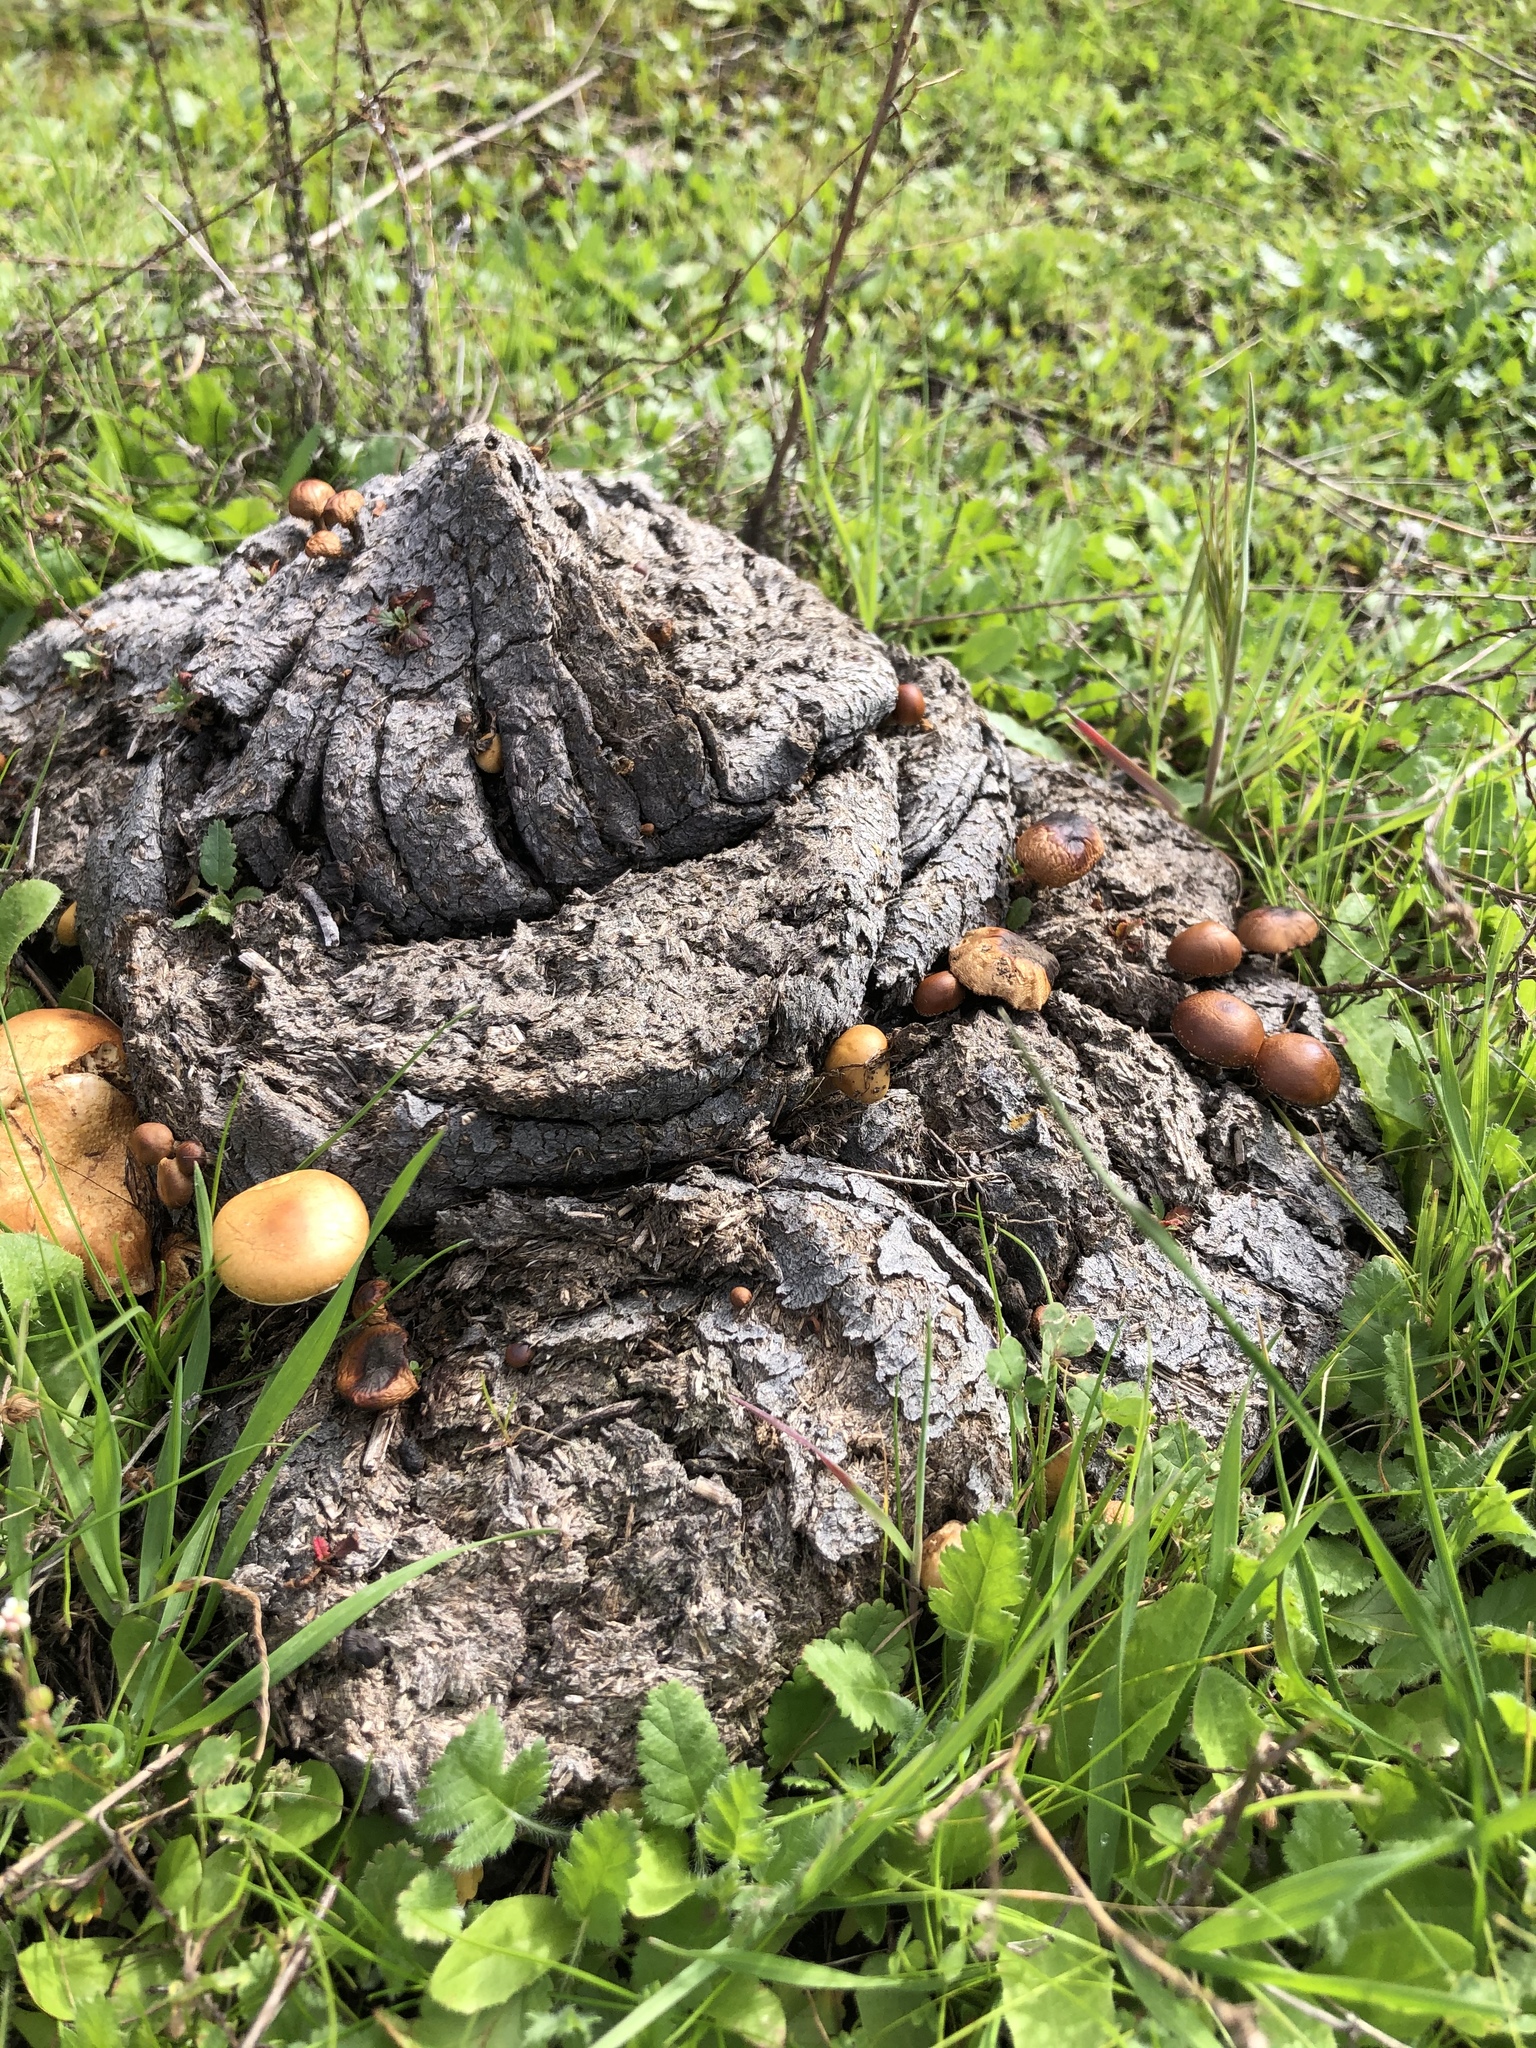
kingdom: Fungi
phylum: Basidiomycota
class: Agaricomycetes
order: Agaricales
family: Strophariaceae
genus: Deconica
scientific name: Deconica coprophila
